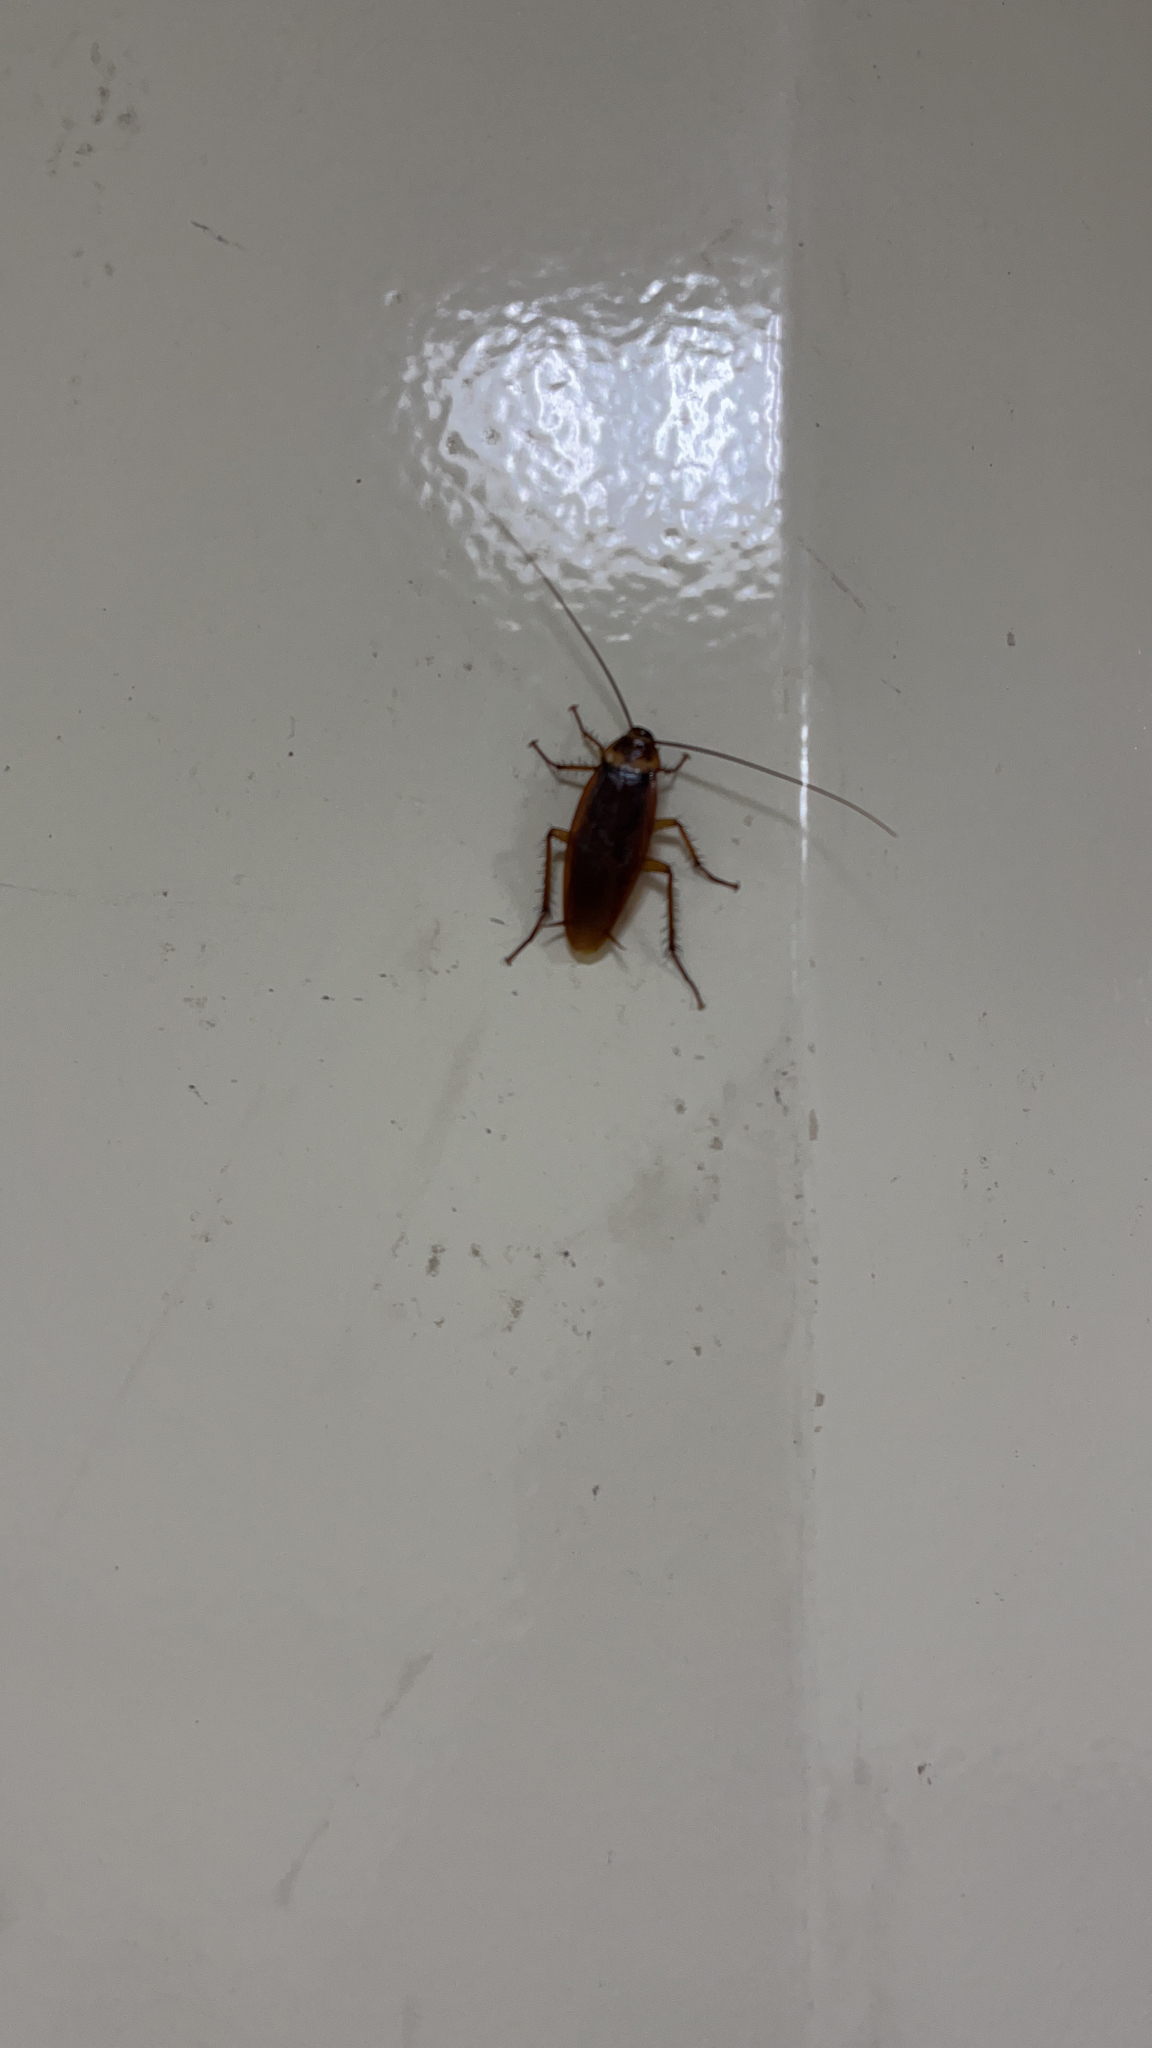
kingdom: Animalia
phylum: Arthropoda
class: Insecta
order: Blattodea
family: Blattidae
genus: Periplaneta
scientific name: Periplaneta americana
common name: American cockroach
